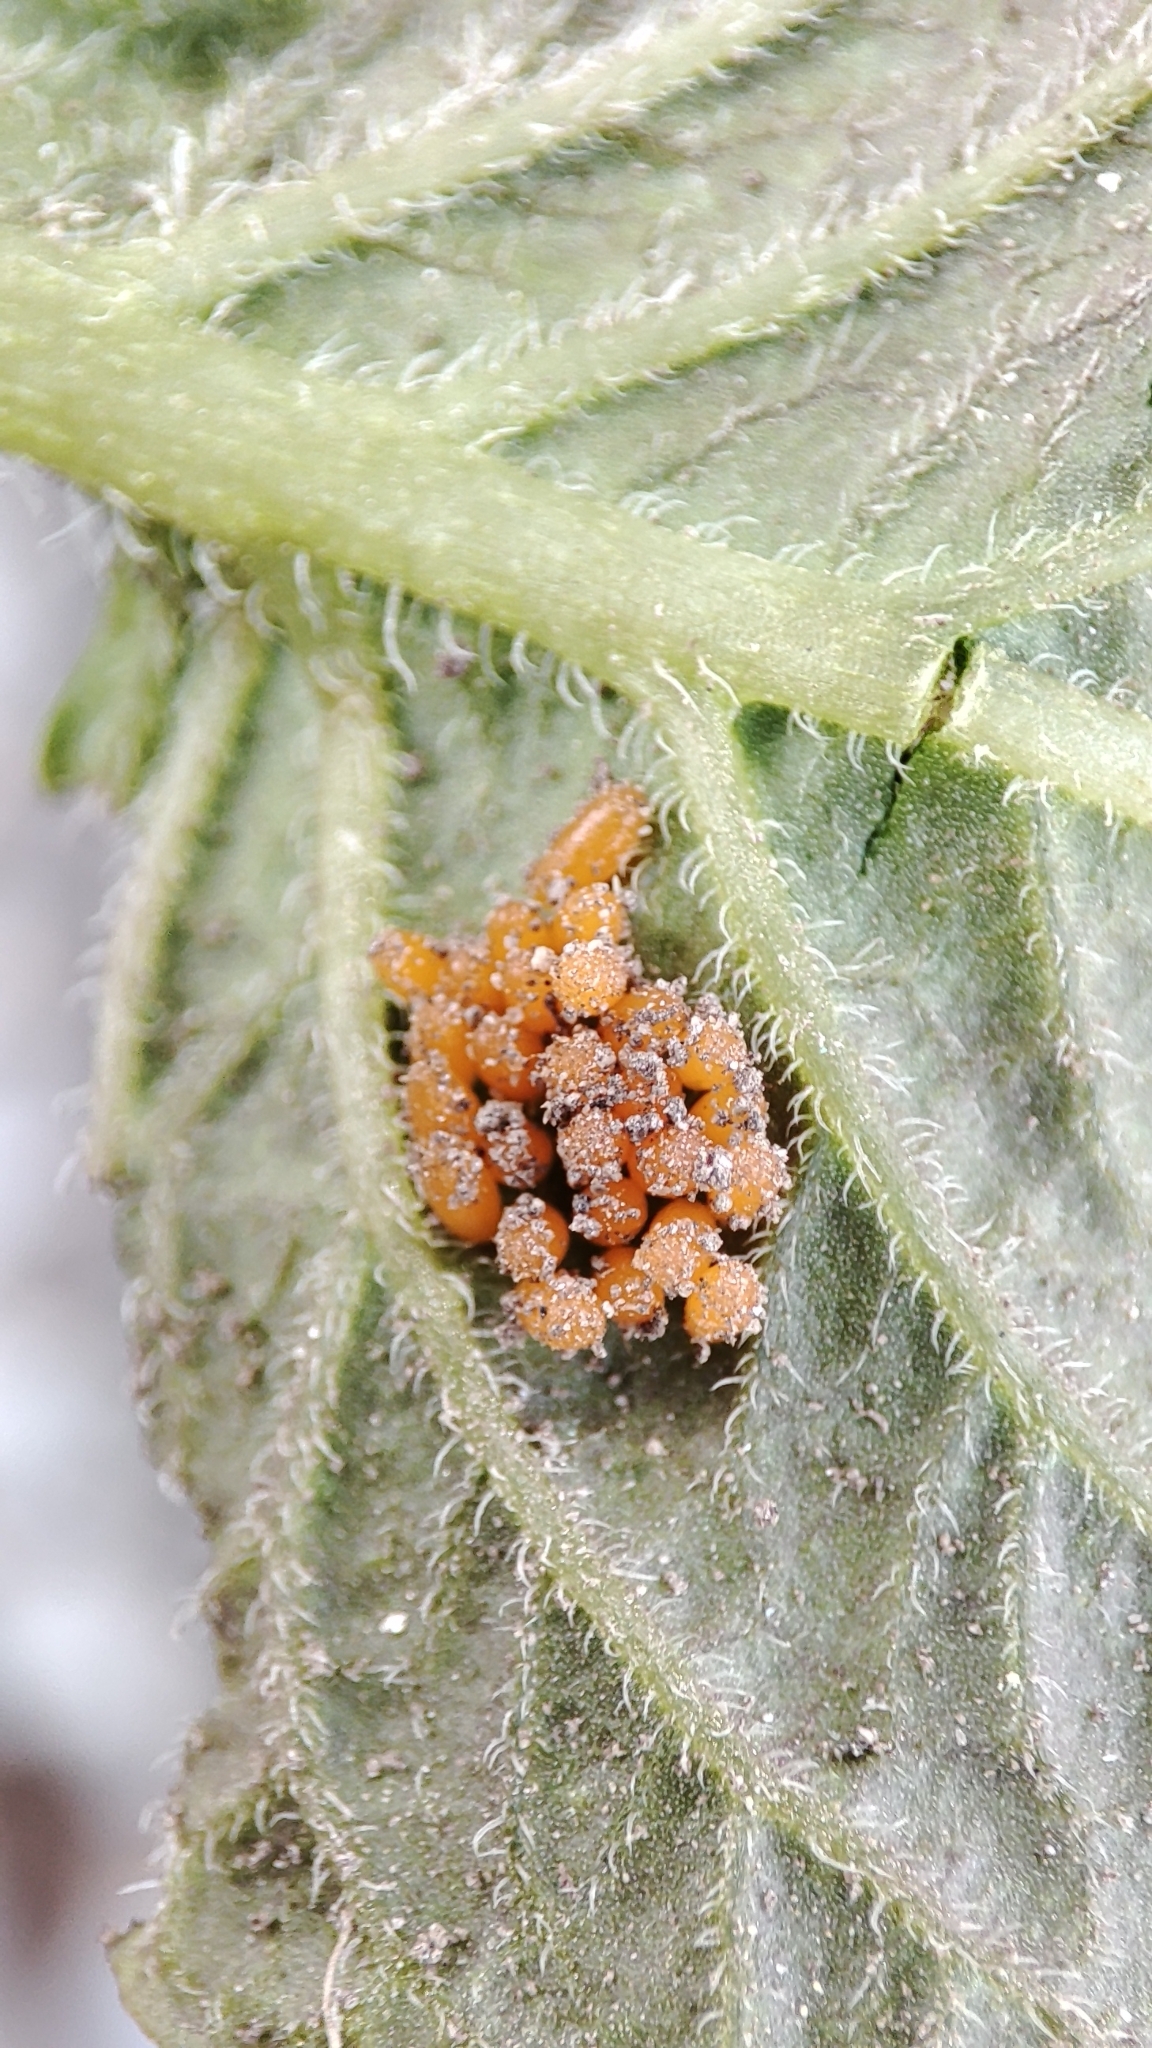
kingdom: Animalia
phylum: Arthropoda
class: Insecta
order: Coleoptera
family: Chrysomelidae
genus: Leptinotarsa
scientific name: Leptinotarsa decemlineata
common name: Colorado potato beetle
